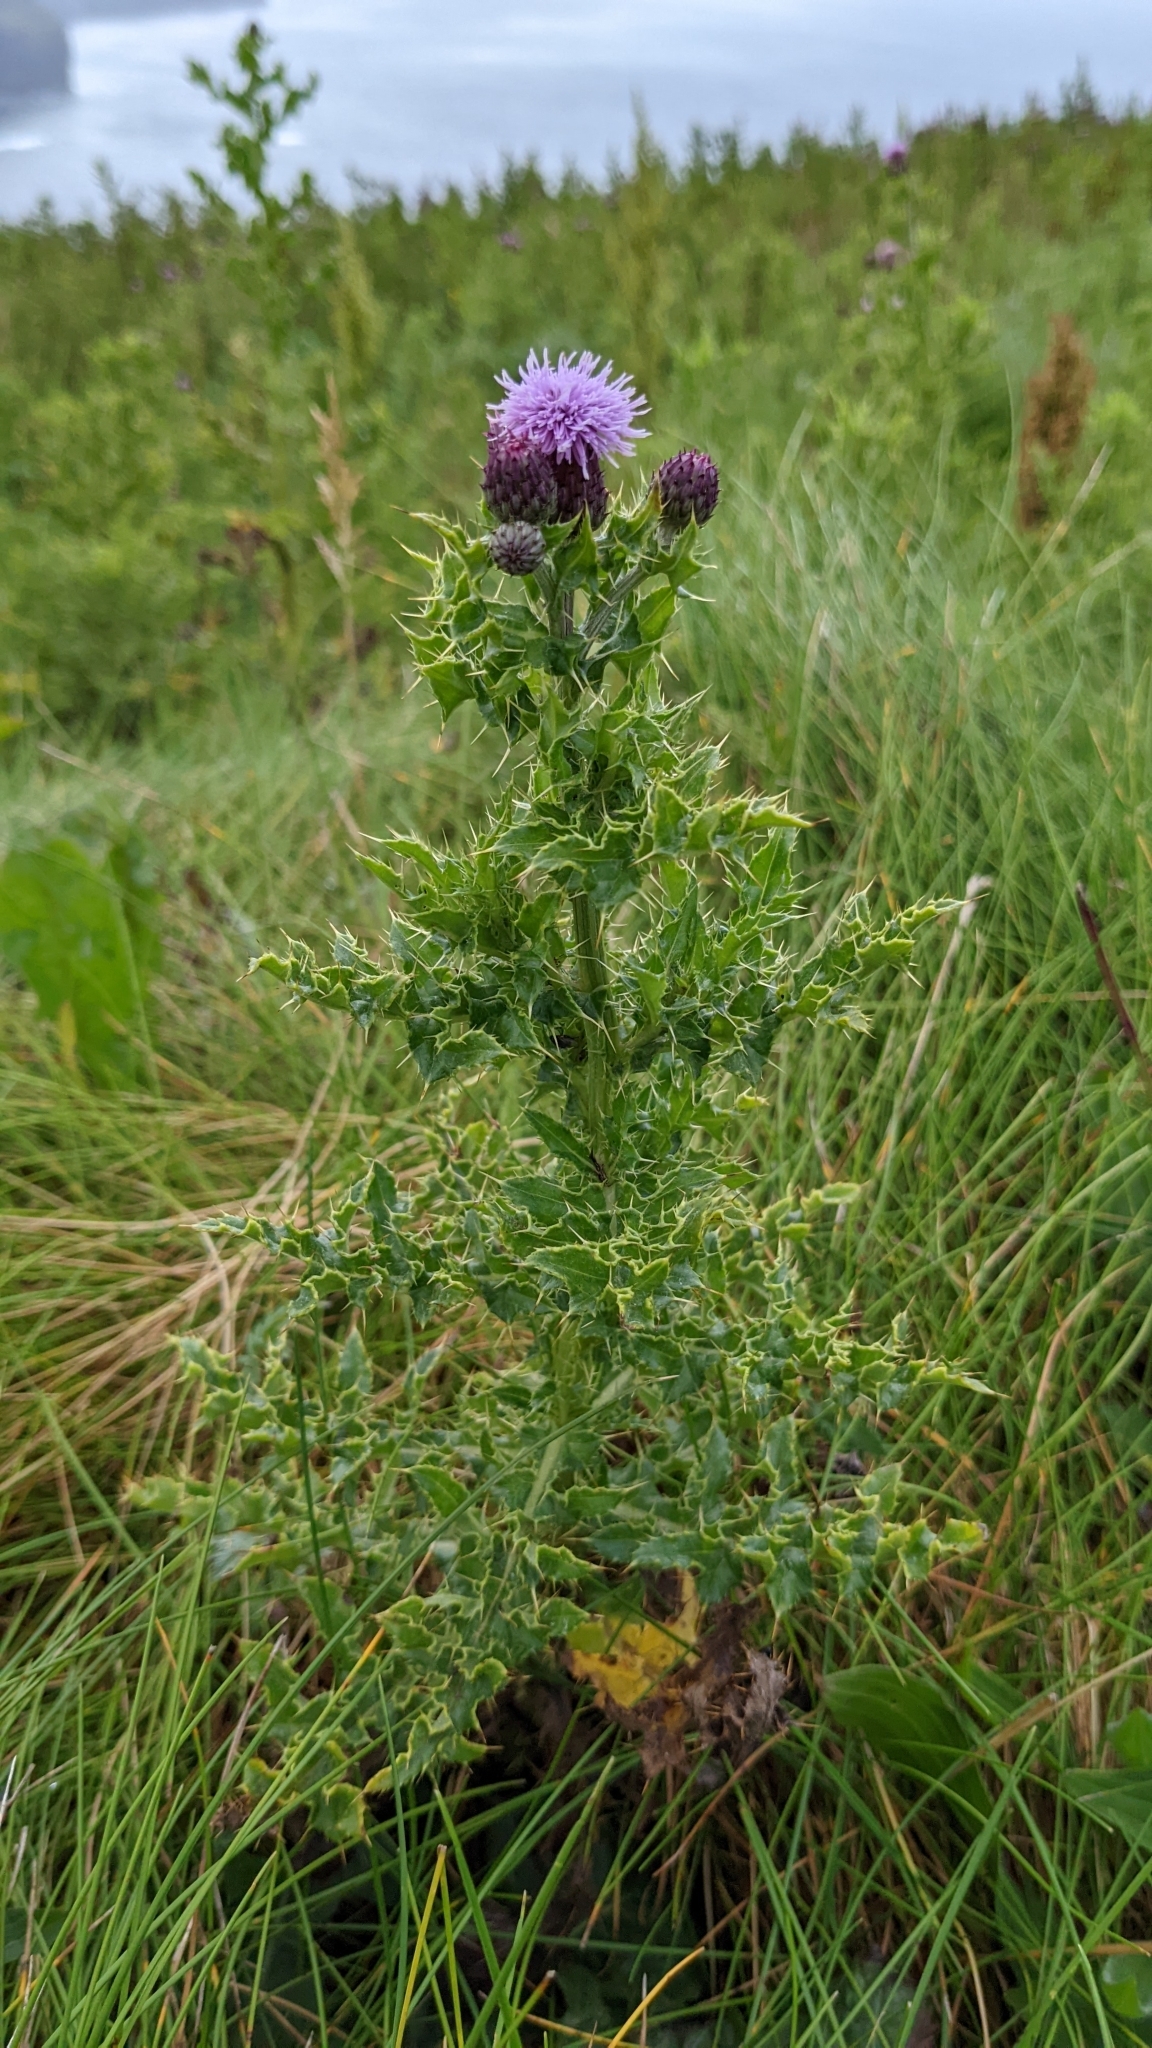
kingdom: Plantae
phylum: Tracheophyta
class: Magnoliopsida
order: Asterales
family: Asteraceae
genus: Cirsium
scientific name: Cirsium arvense
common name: Creeping thistle
